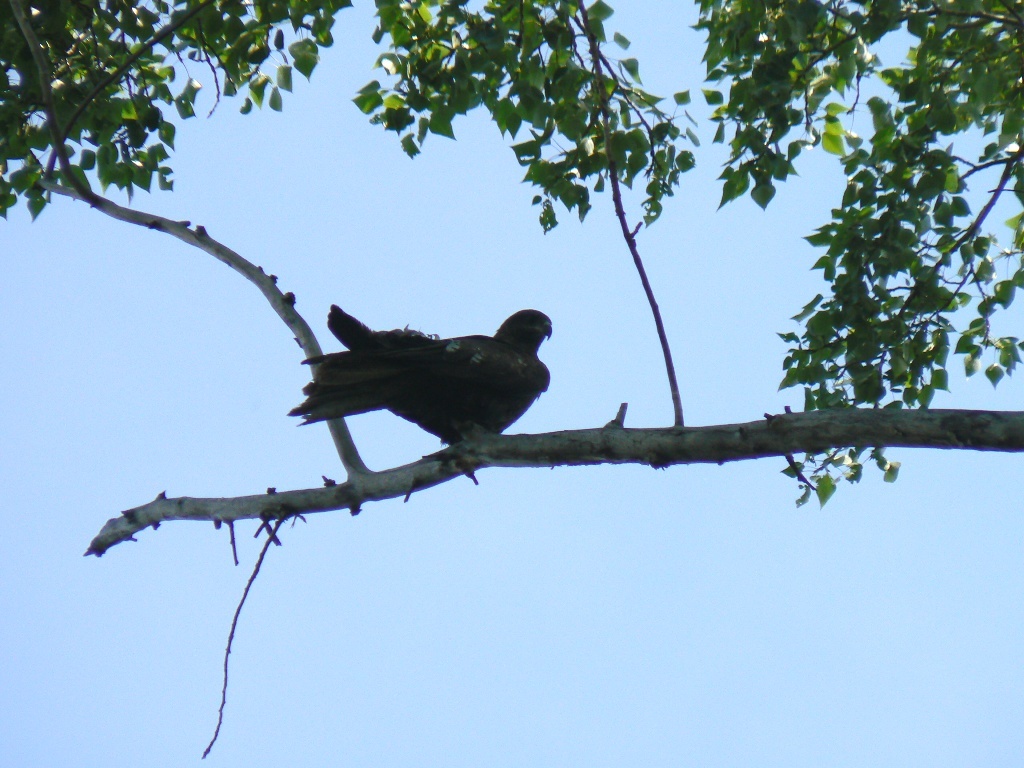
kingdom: Animalia
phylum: Chordata
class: Aves
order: Accipitriformes
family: Accipitridae
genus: Milvus
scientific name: Milvus migrans
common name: Black kite
